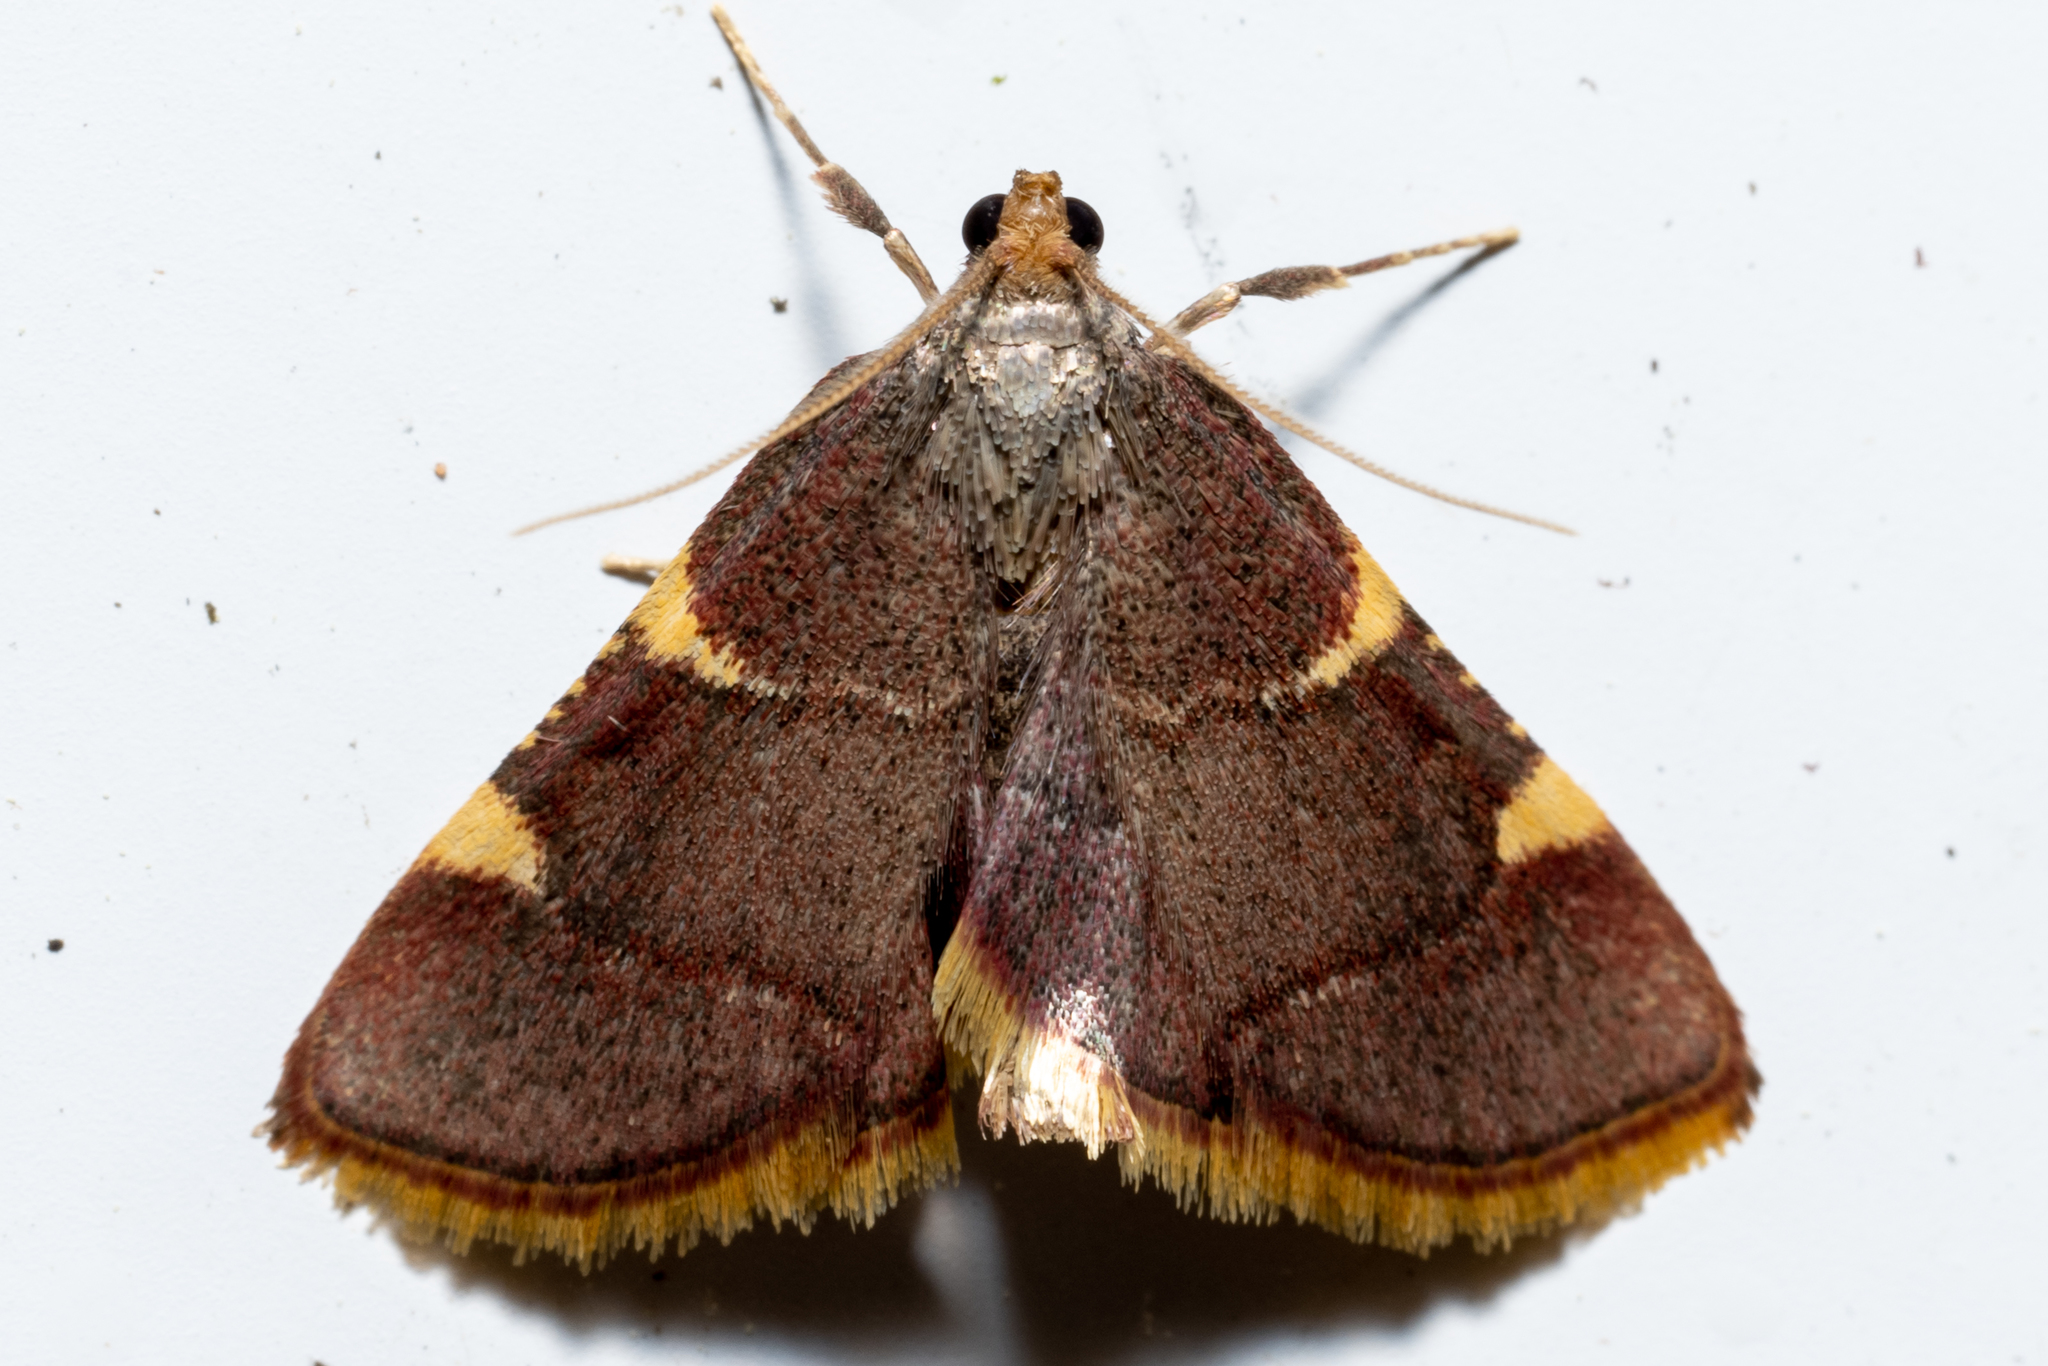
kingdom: Animalia
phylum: Arthropoda
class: Insecta
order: Lepidoptera
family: Pyralidae
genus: Hypsopygia
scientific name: Hypsopygia olinalis
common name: Yellow-fringed dolichomia moth
